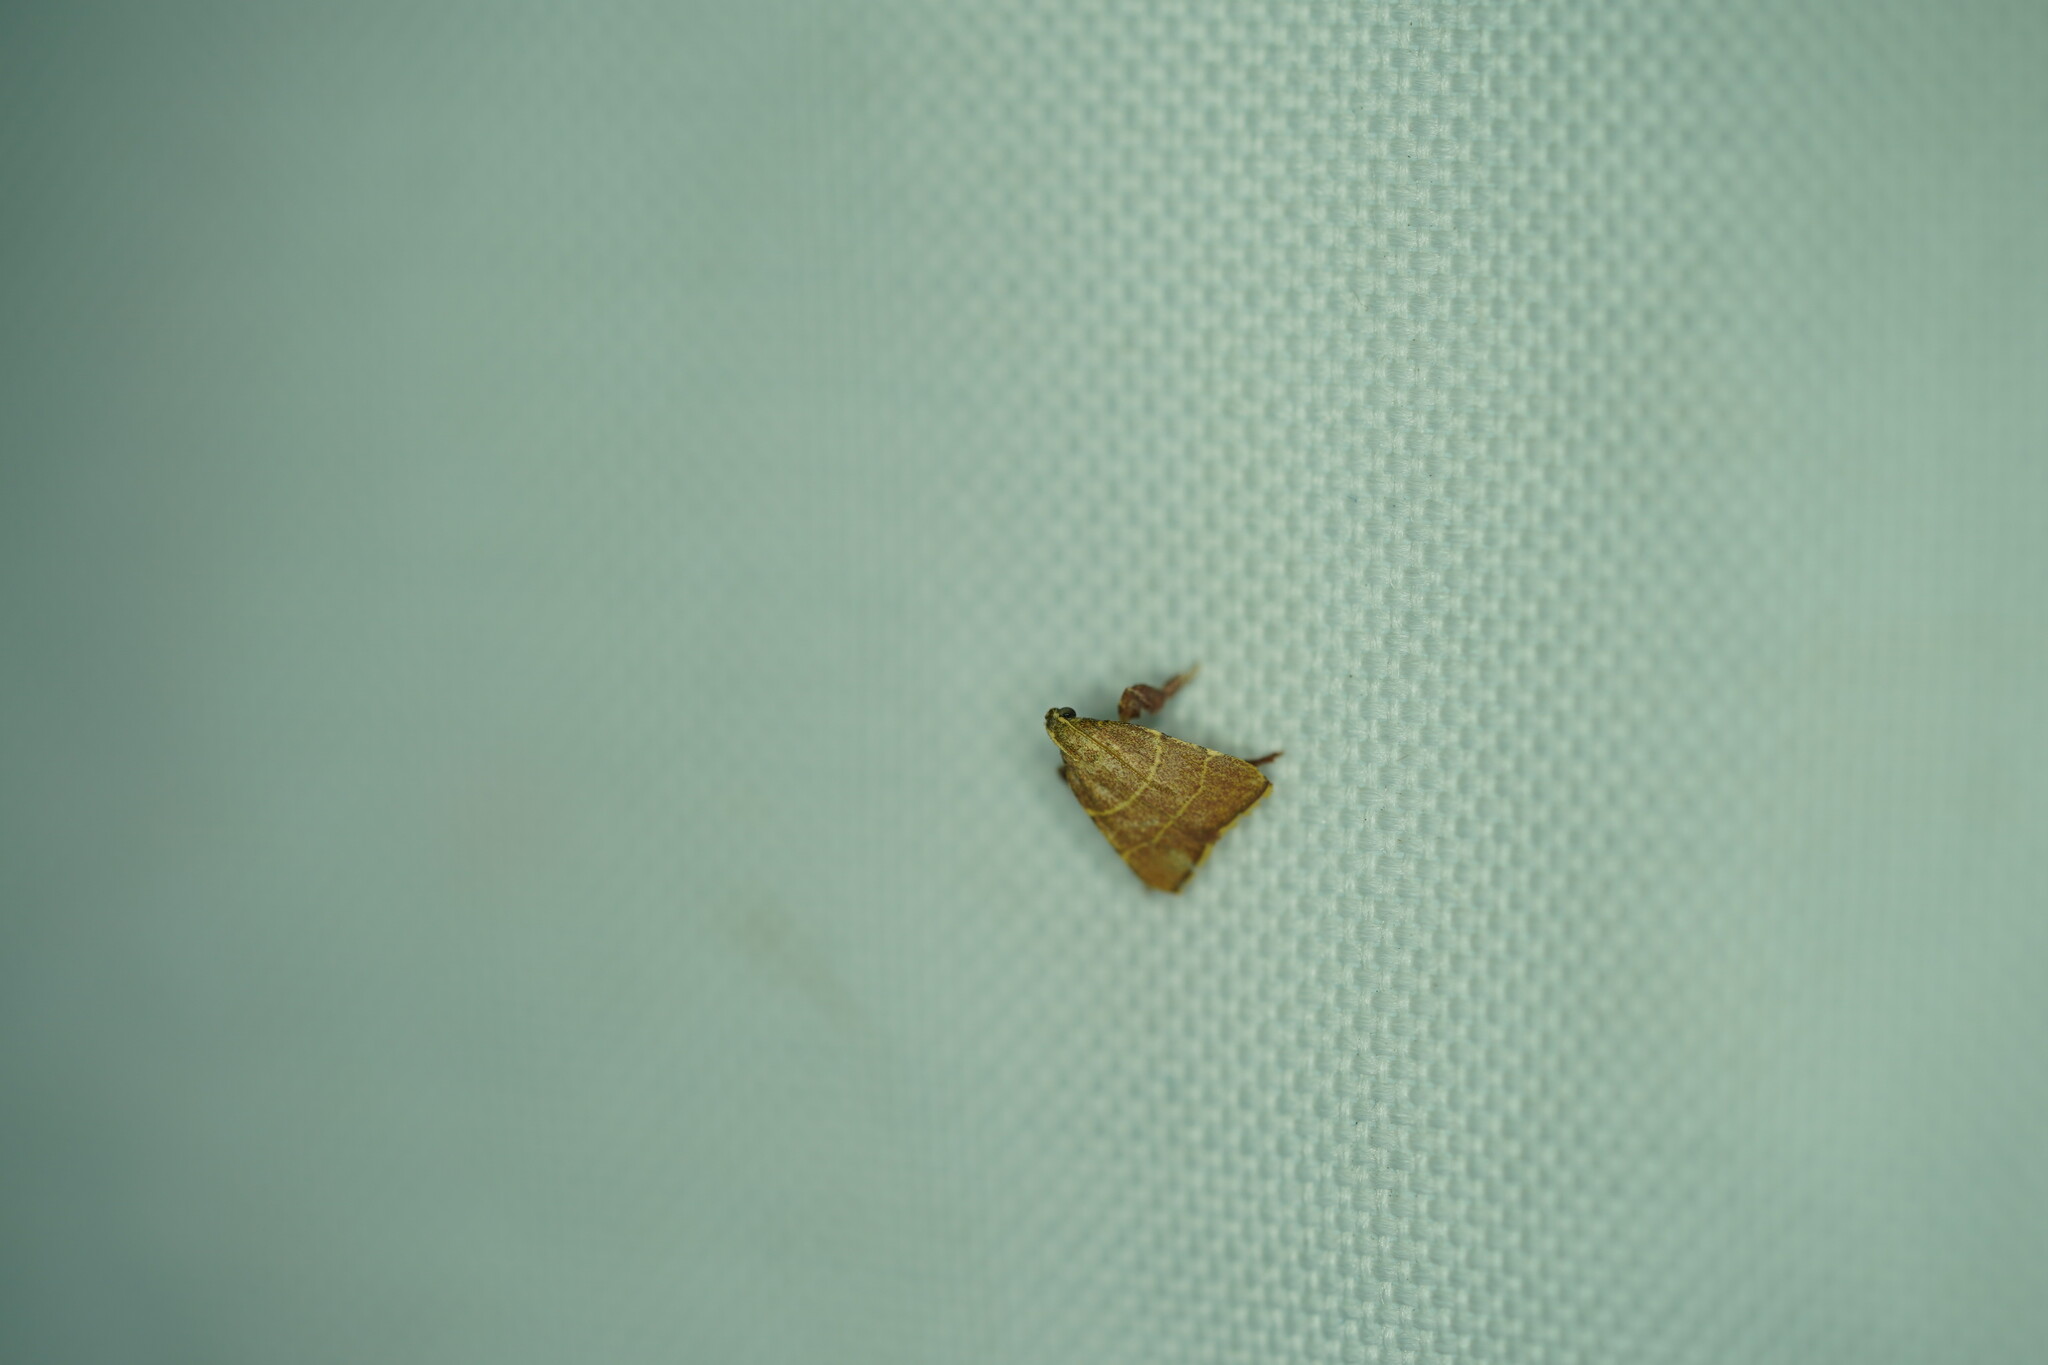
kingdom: Animalia
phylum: Arthropoda
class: Insecta
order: Lepidoptera
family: Pyralidae
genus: Parachma
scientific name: Parachma ochracealis
